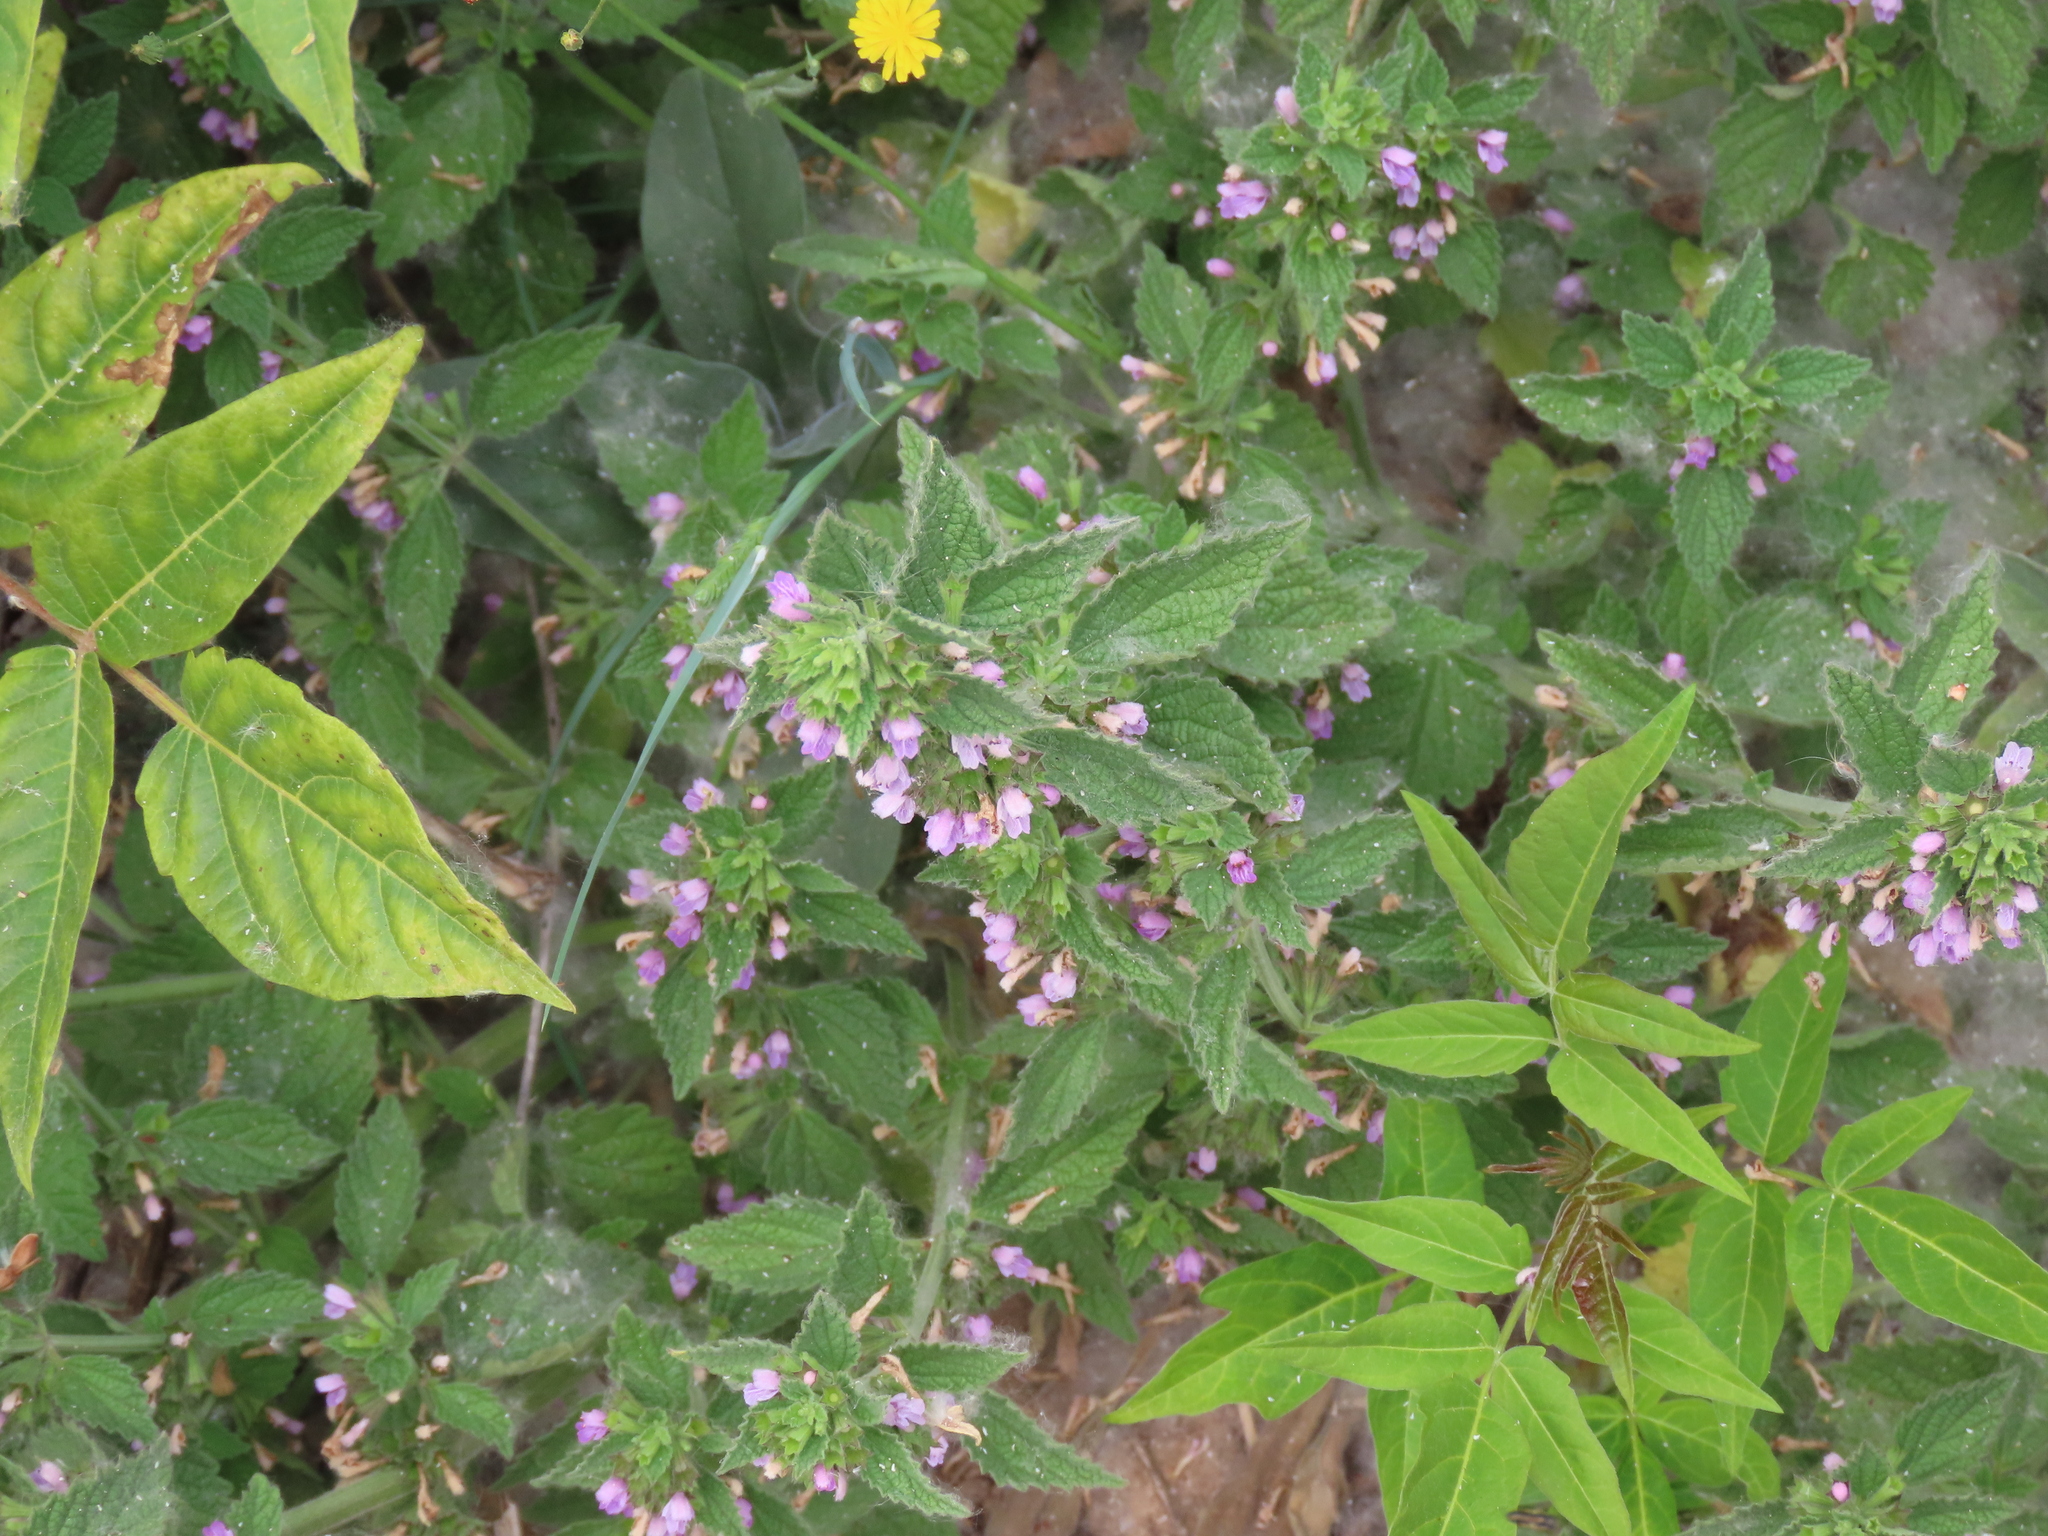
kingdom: Plantae
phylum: Tracheophyta
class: Magnoliopsida
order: Lamiales
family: Lamiaceae
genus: Ballota
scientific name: Ballota nigra
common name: Black horehound
